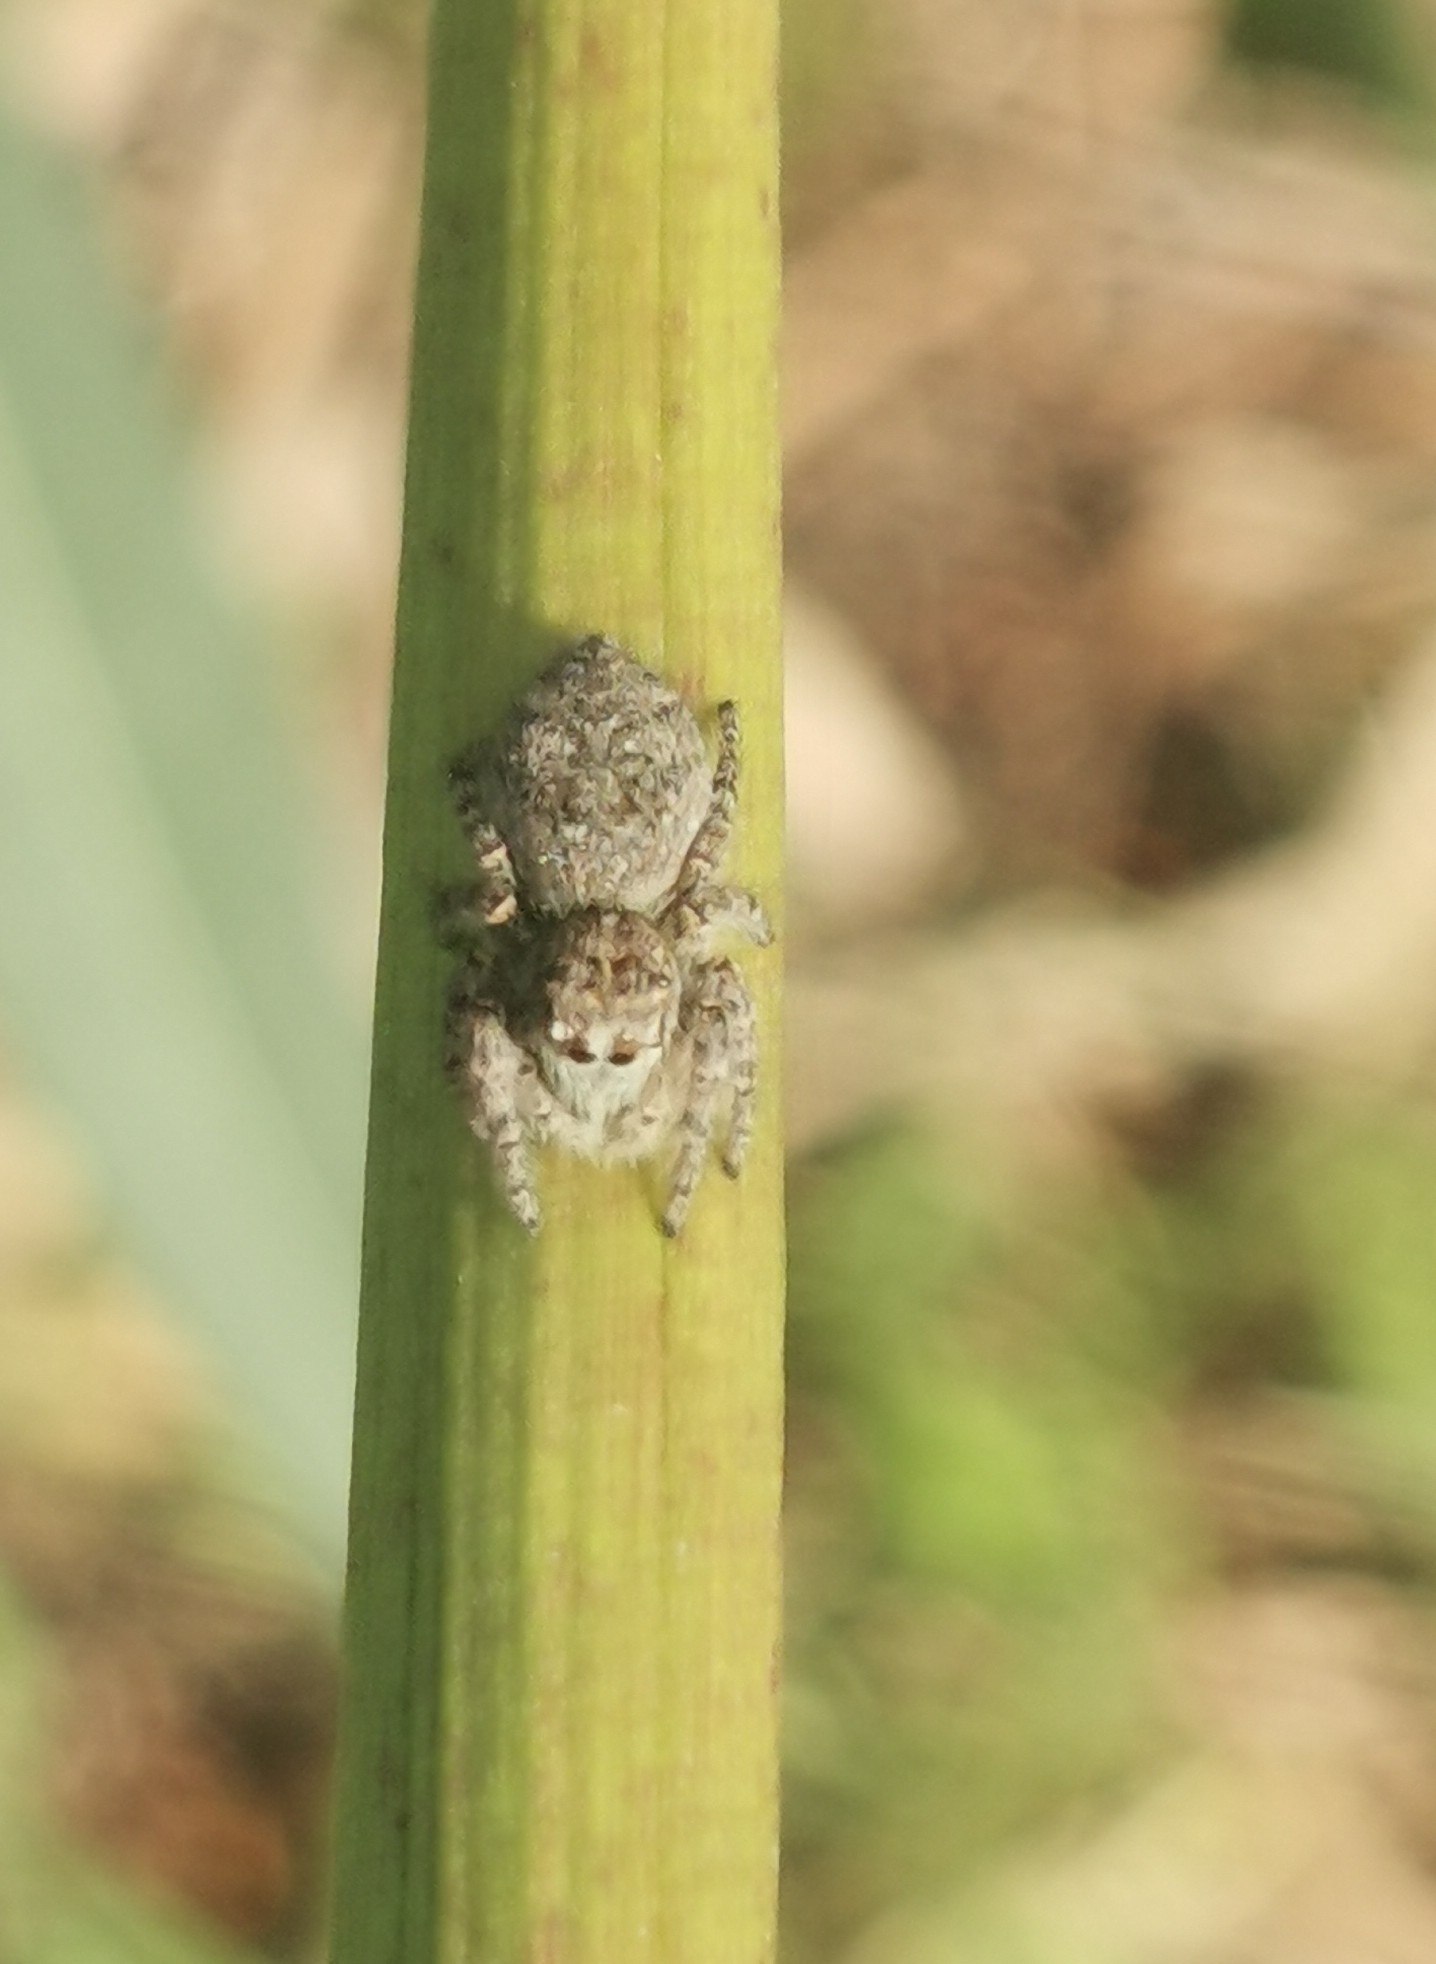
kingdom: Animalia
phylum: Arthropoda
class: Arachnida
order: Araneae
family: Salticidae
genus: Philaeus
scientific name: Philaeus chrysops
